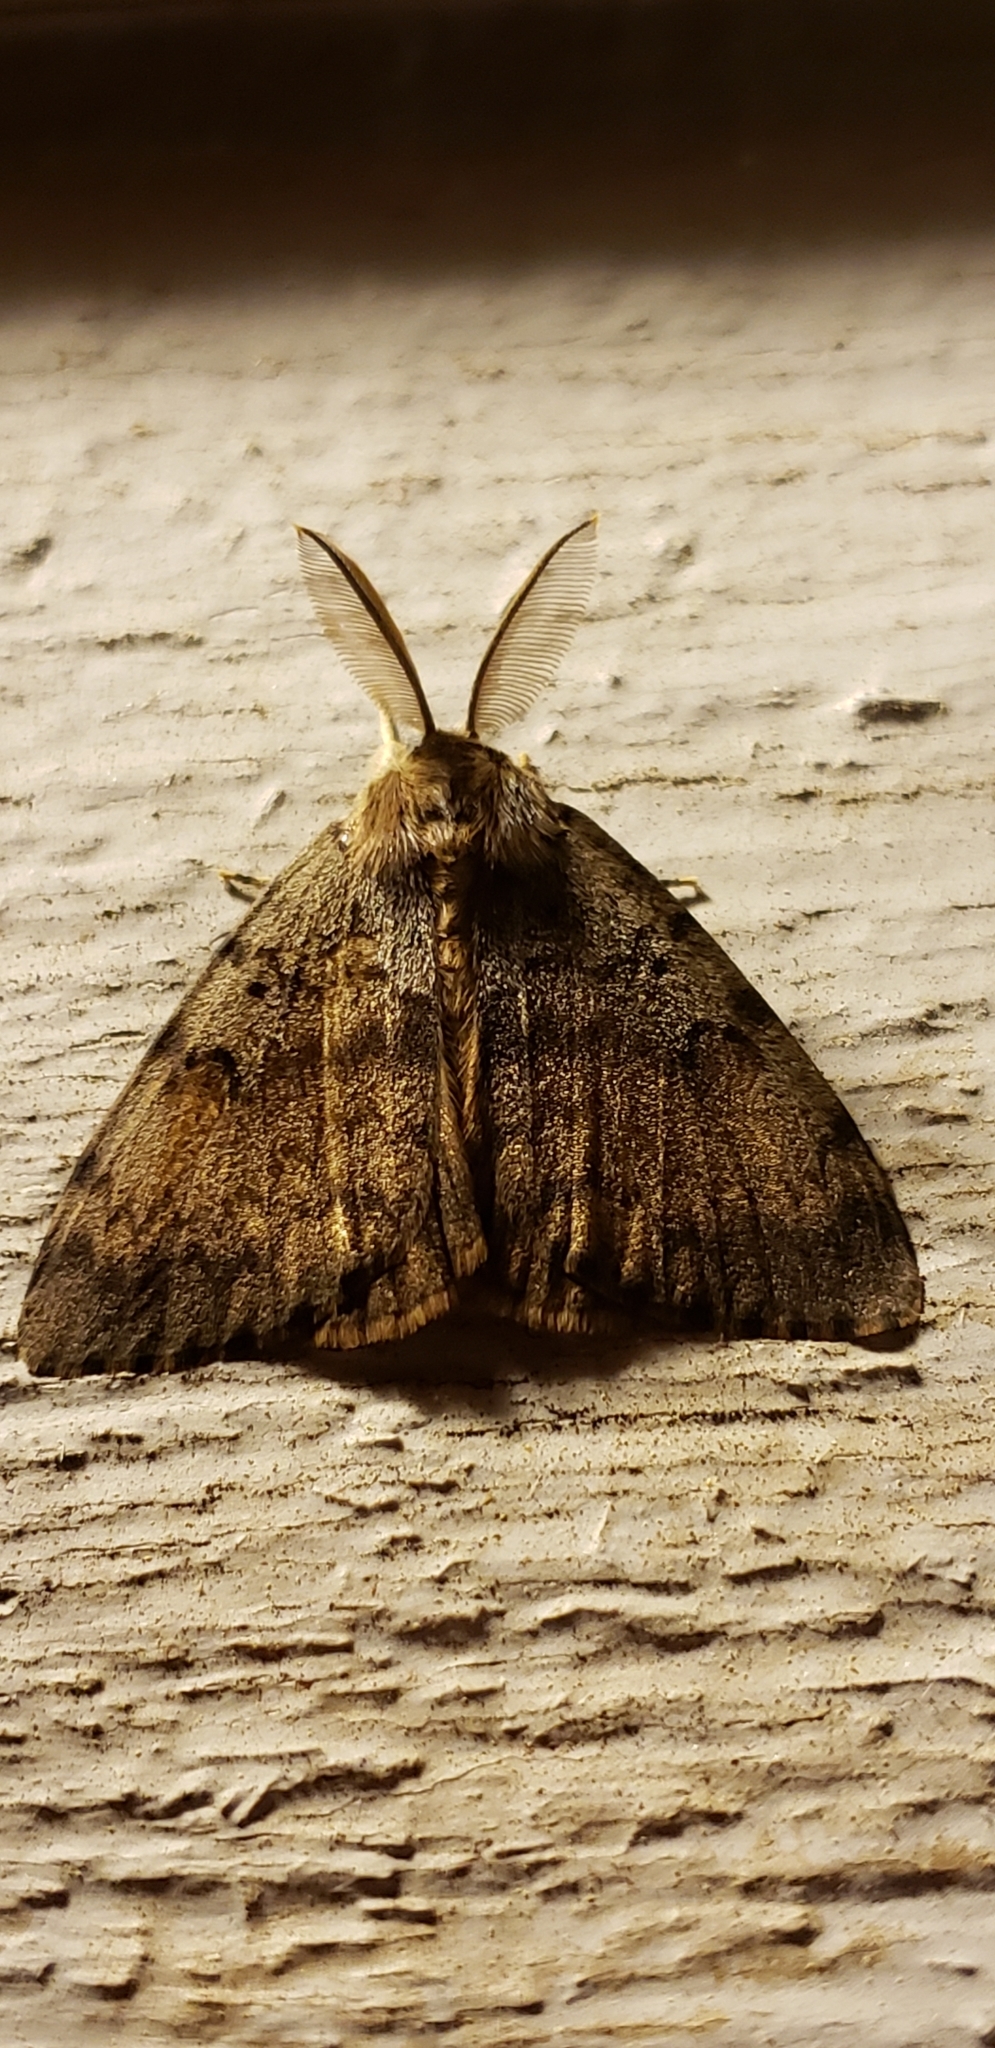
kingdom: Animalia
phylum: Arthropoda
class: Insecta
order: Lepidoptera
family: Erebidae
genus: Lymantria
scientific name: Lymantria dispar
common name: Gypsy moth
